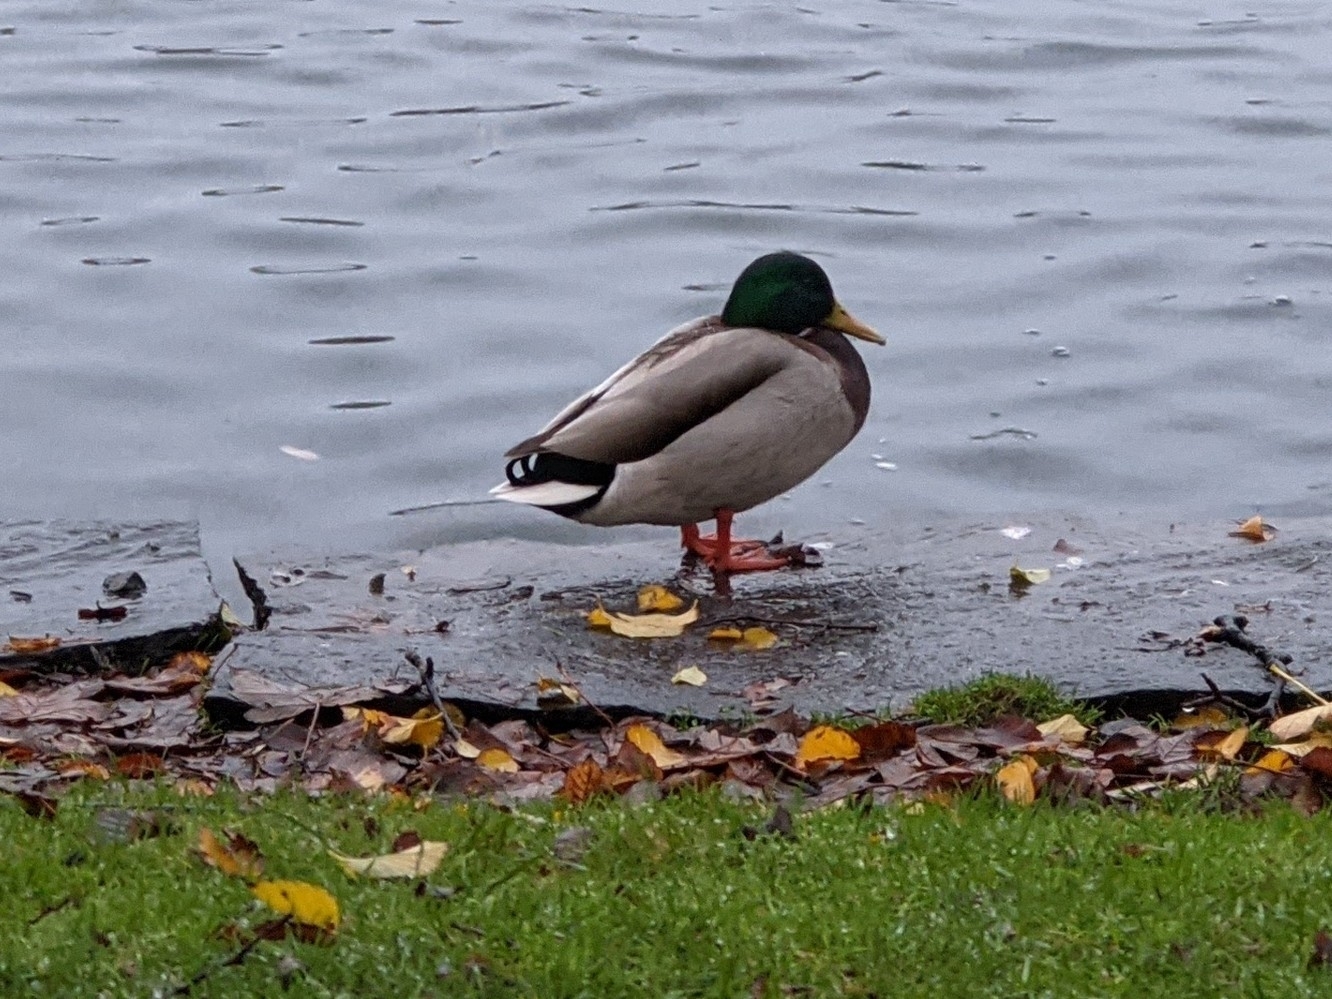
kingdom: Animalia
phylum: Chordata
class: Aves
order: Anseriformes
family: Anatidae
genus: Anas
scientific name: Anas platyrhynchos
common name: Mallard
